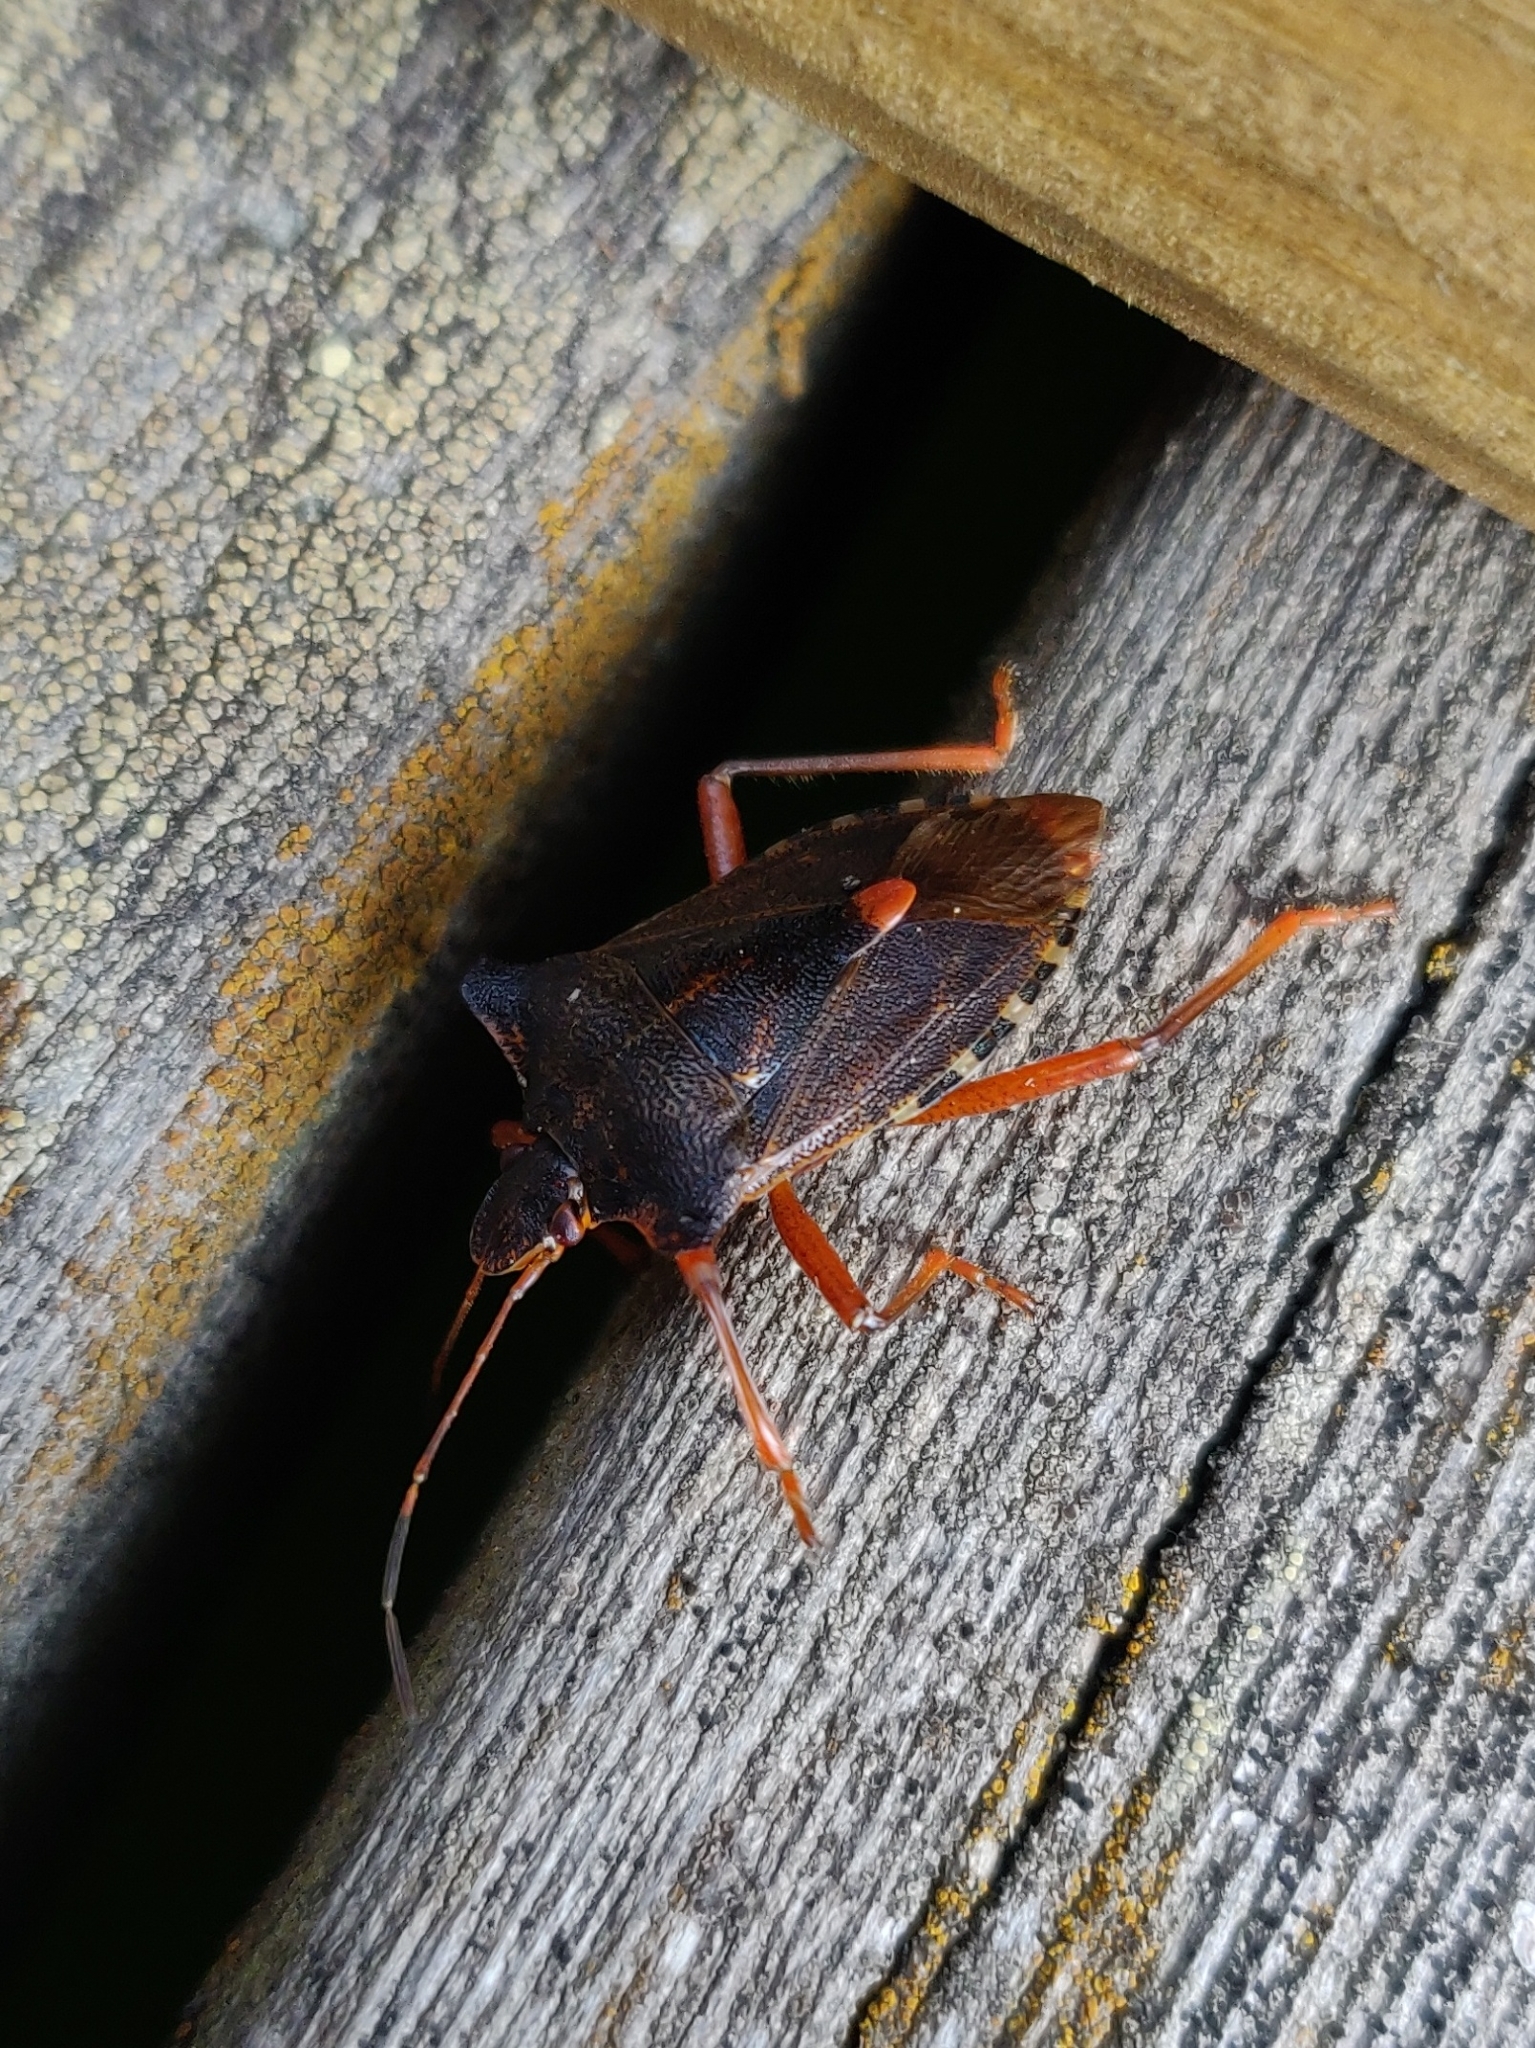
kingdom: Animalia
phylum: Arthropoda
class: Insecta
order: Hemiptera
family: Pentatomidae
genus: Pentatoma
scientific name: Pentatoma rufipes
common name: Forest bug
